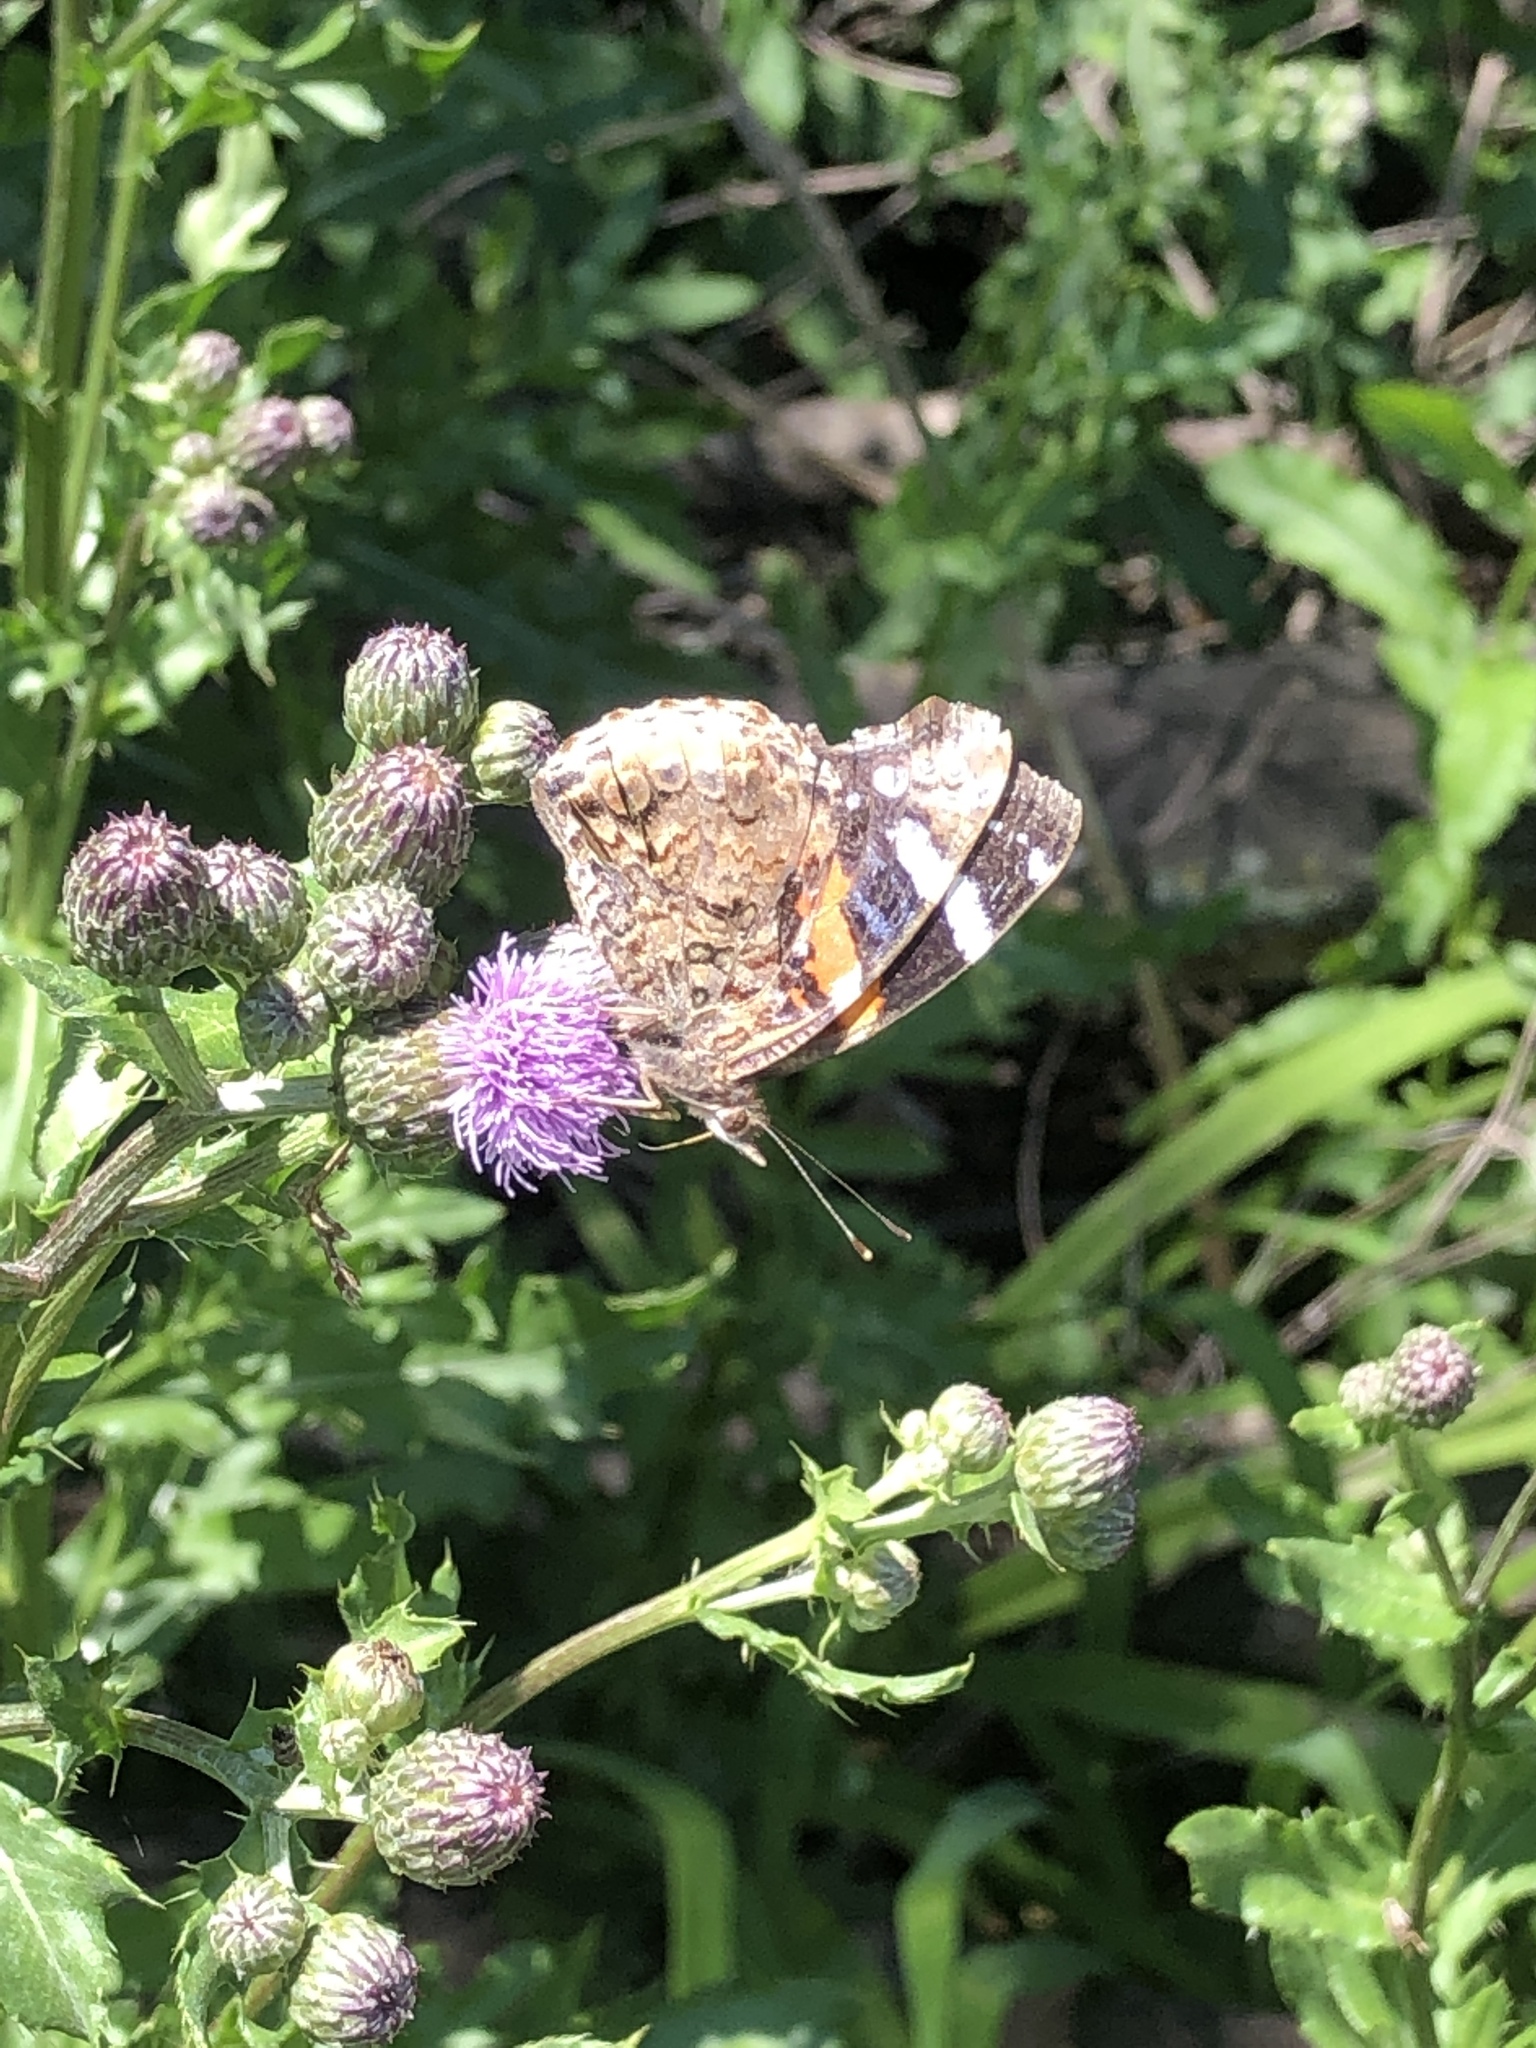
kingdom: Animalia
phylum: Arthropoda
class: Insecta
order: Lepidoptera
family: Nymphalidae
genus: Vanessa
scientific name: Vanessa atalanta
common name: Red admiral
